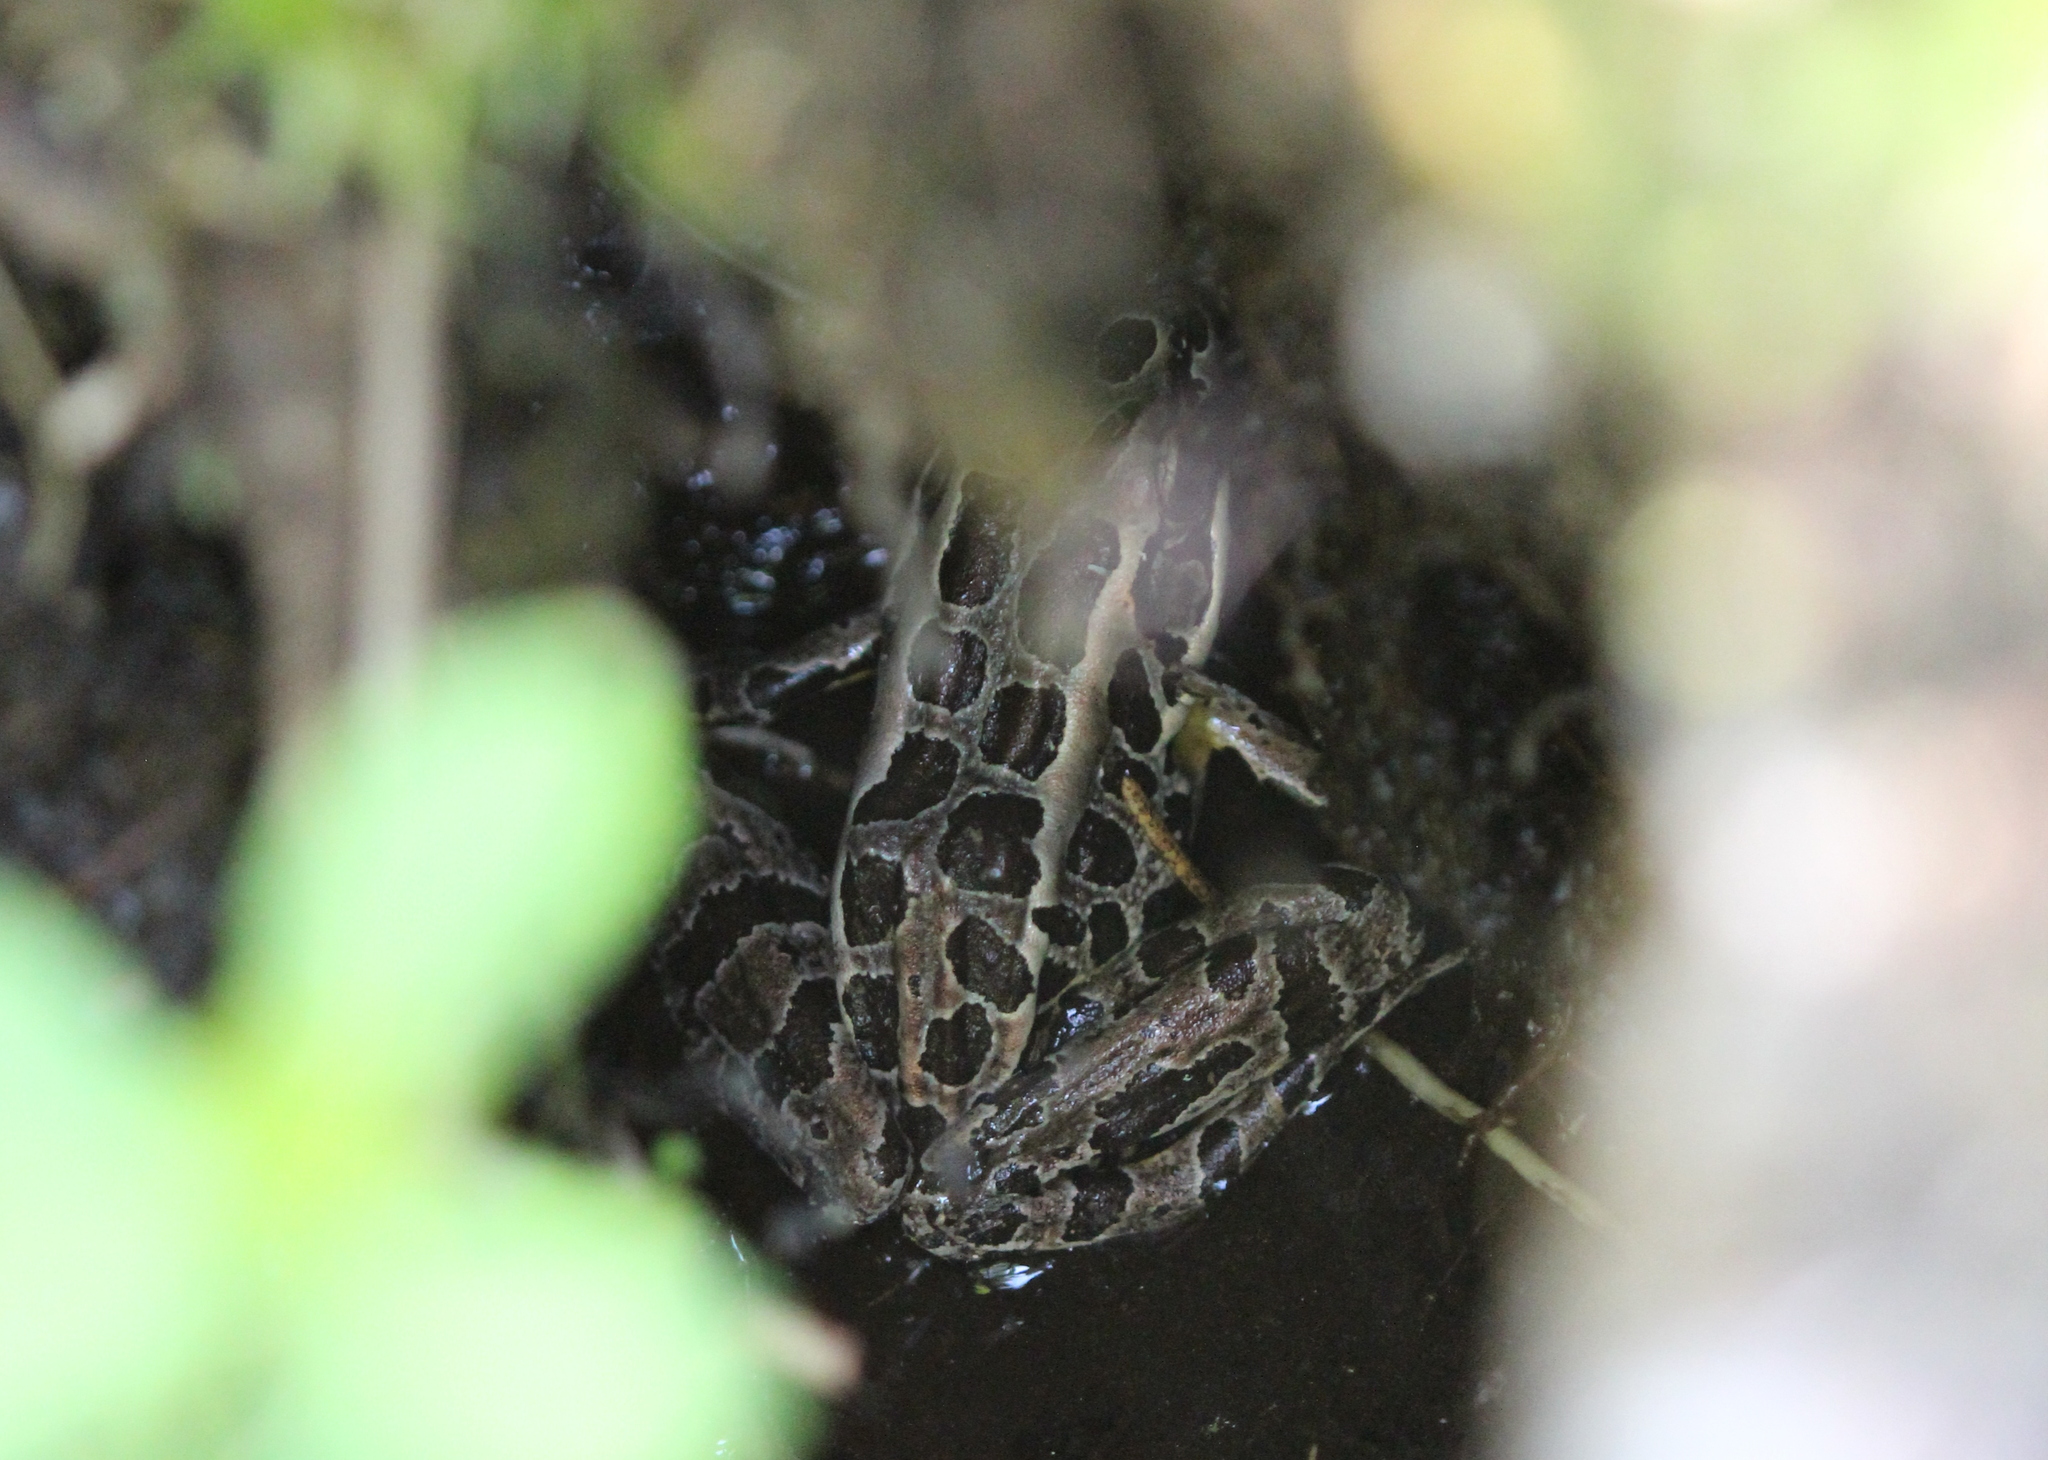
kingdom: Animalia
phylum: Chordata
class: Amphibia
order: Anura
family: Ranidae
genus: Lithobates
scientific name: Lithobates palustris
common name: Pickerel frog
